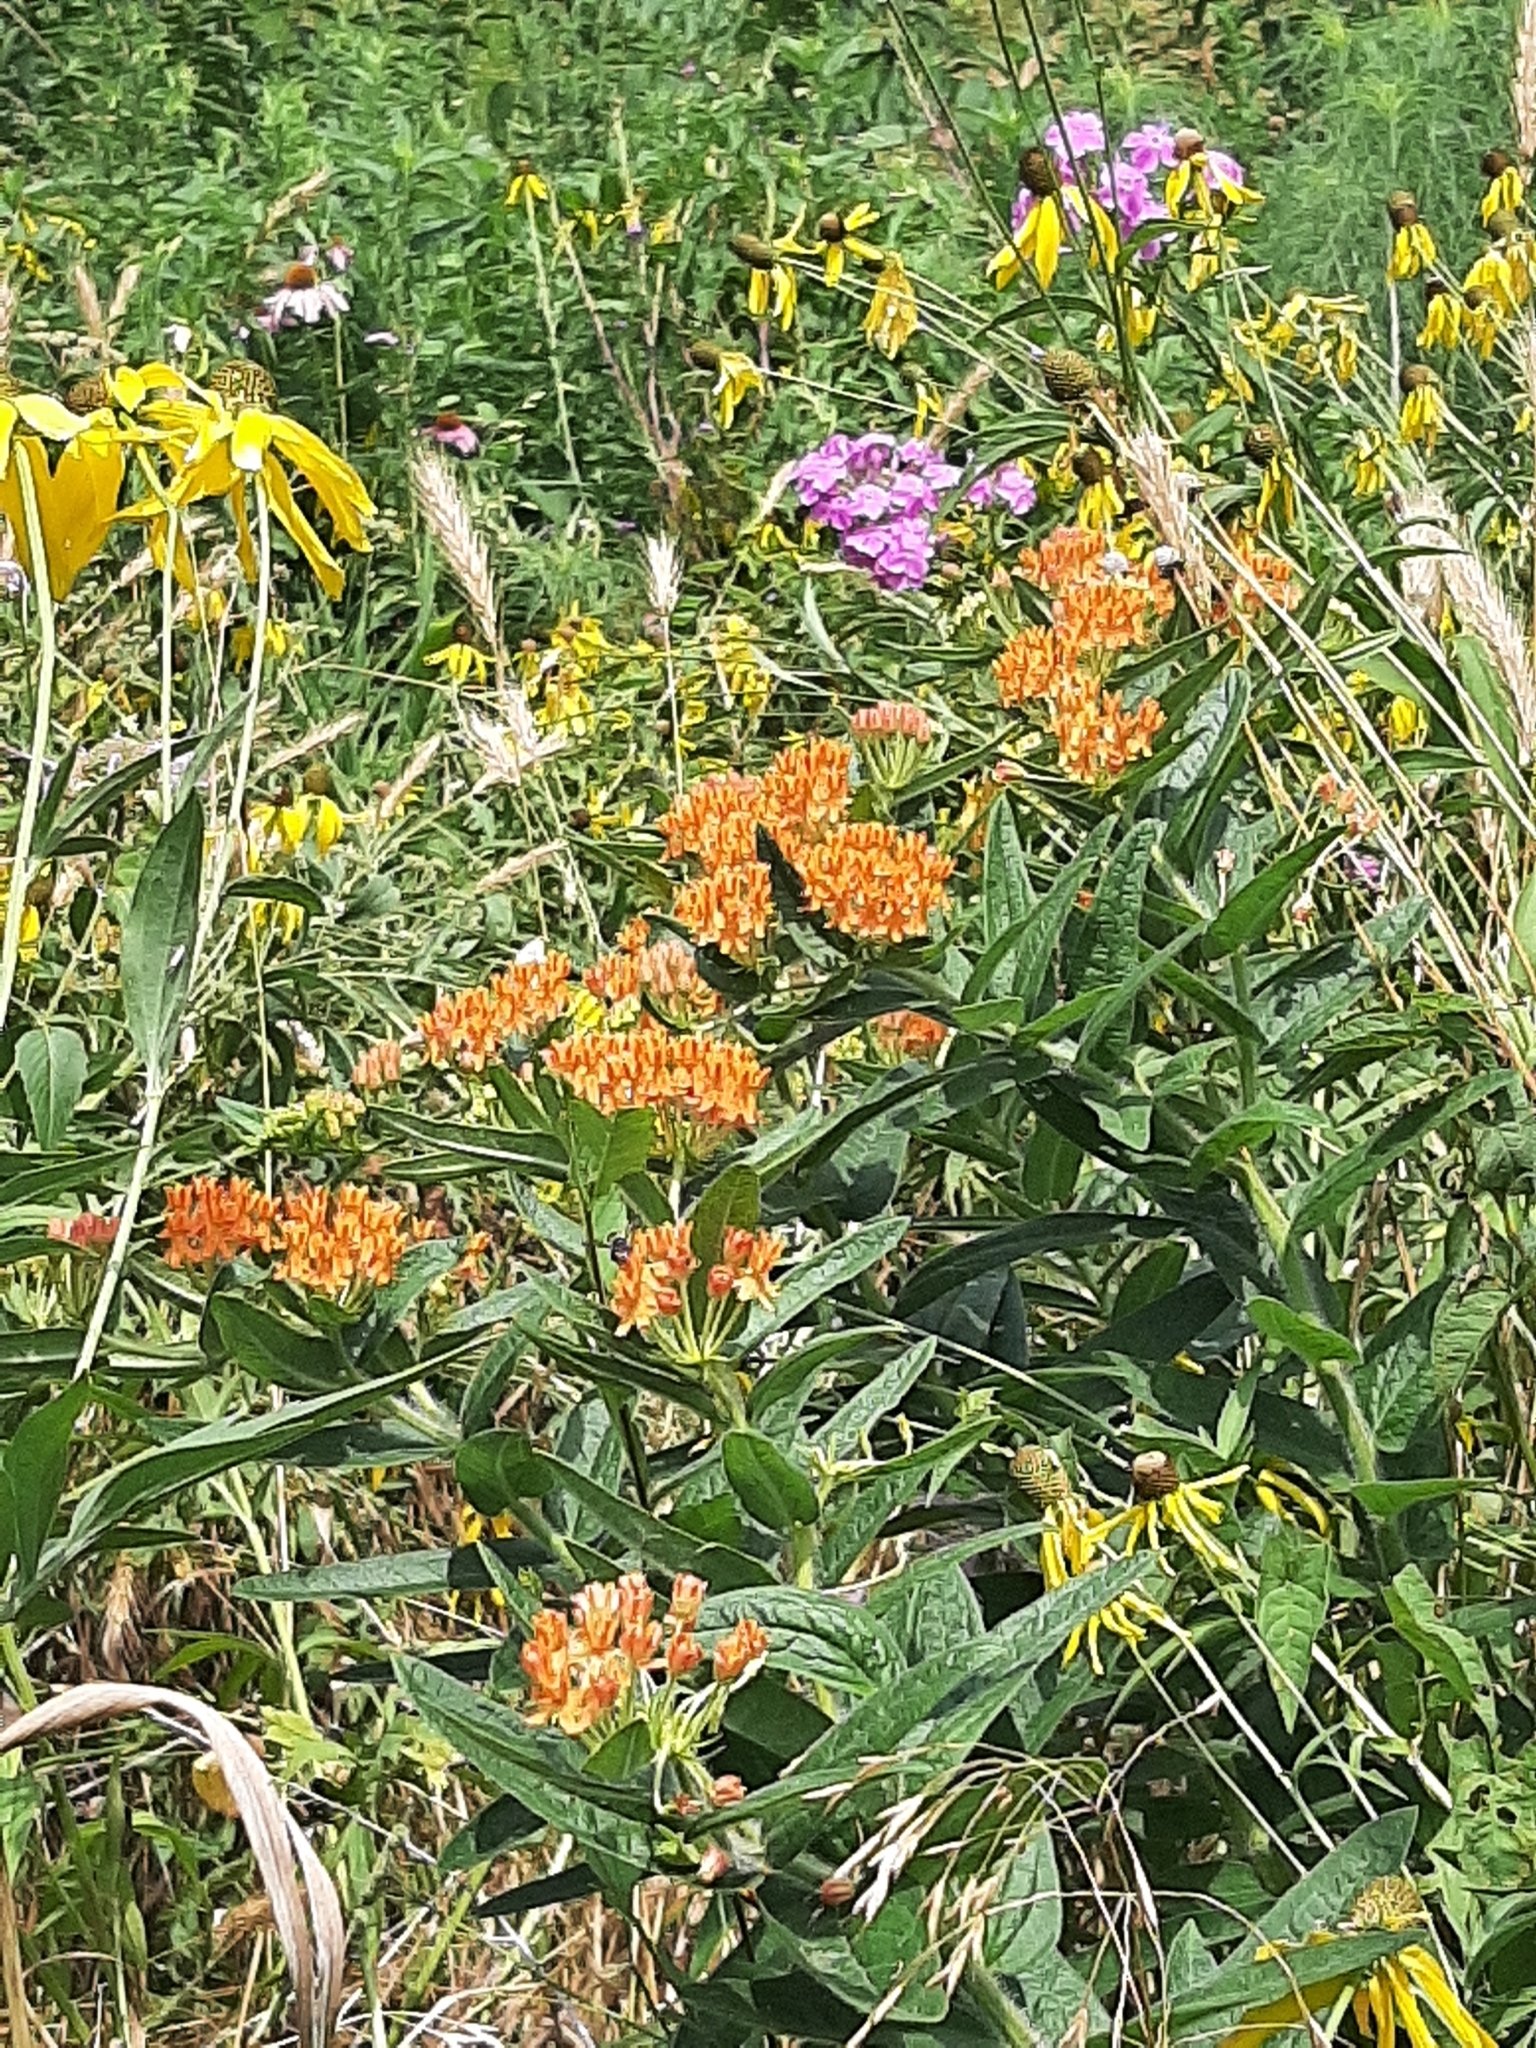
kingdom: Plantae
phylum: Tracheophyta
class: Magnoliopsida
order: Gentianales
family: Apocynaceae
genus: Asclepias
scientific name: Asclepias tuberosa
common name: Butterfly milkweed
